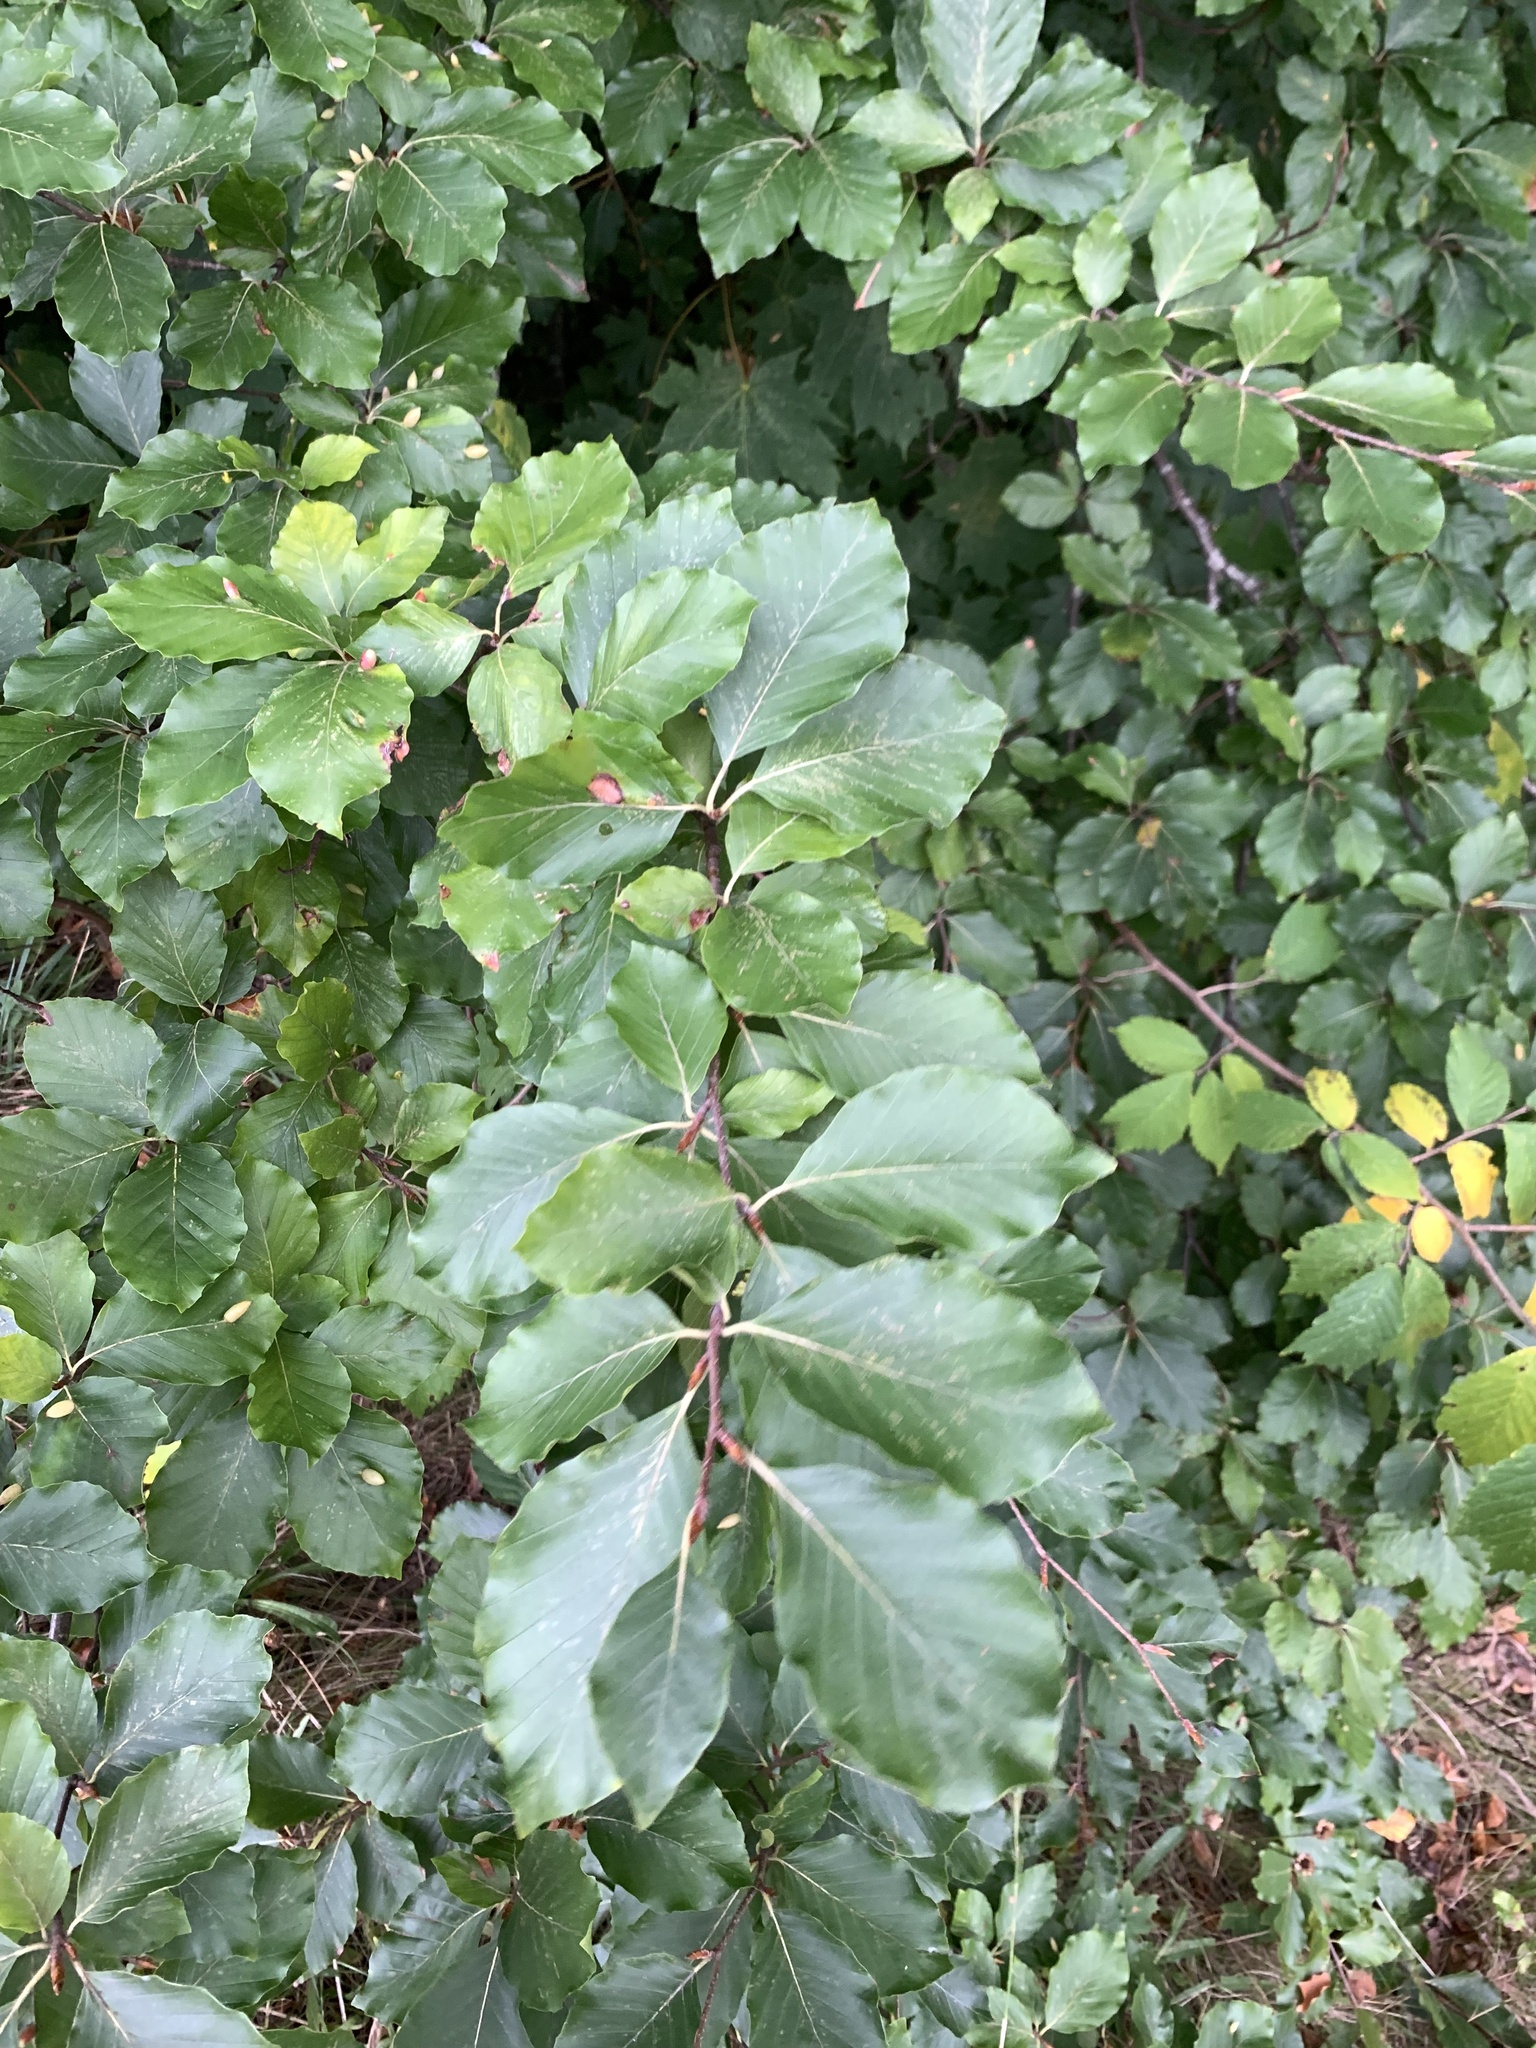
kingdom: Plantae
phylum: Tracheophyta
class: Magnoliopsida
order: Fagales
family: Fagaceae
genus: Fagus
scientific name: Fagus sylvatica
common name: Beech
